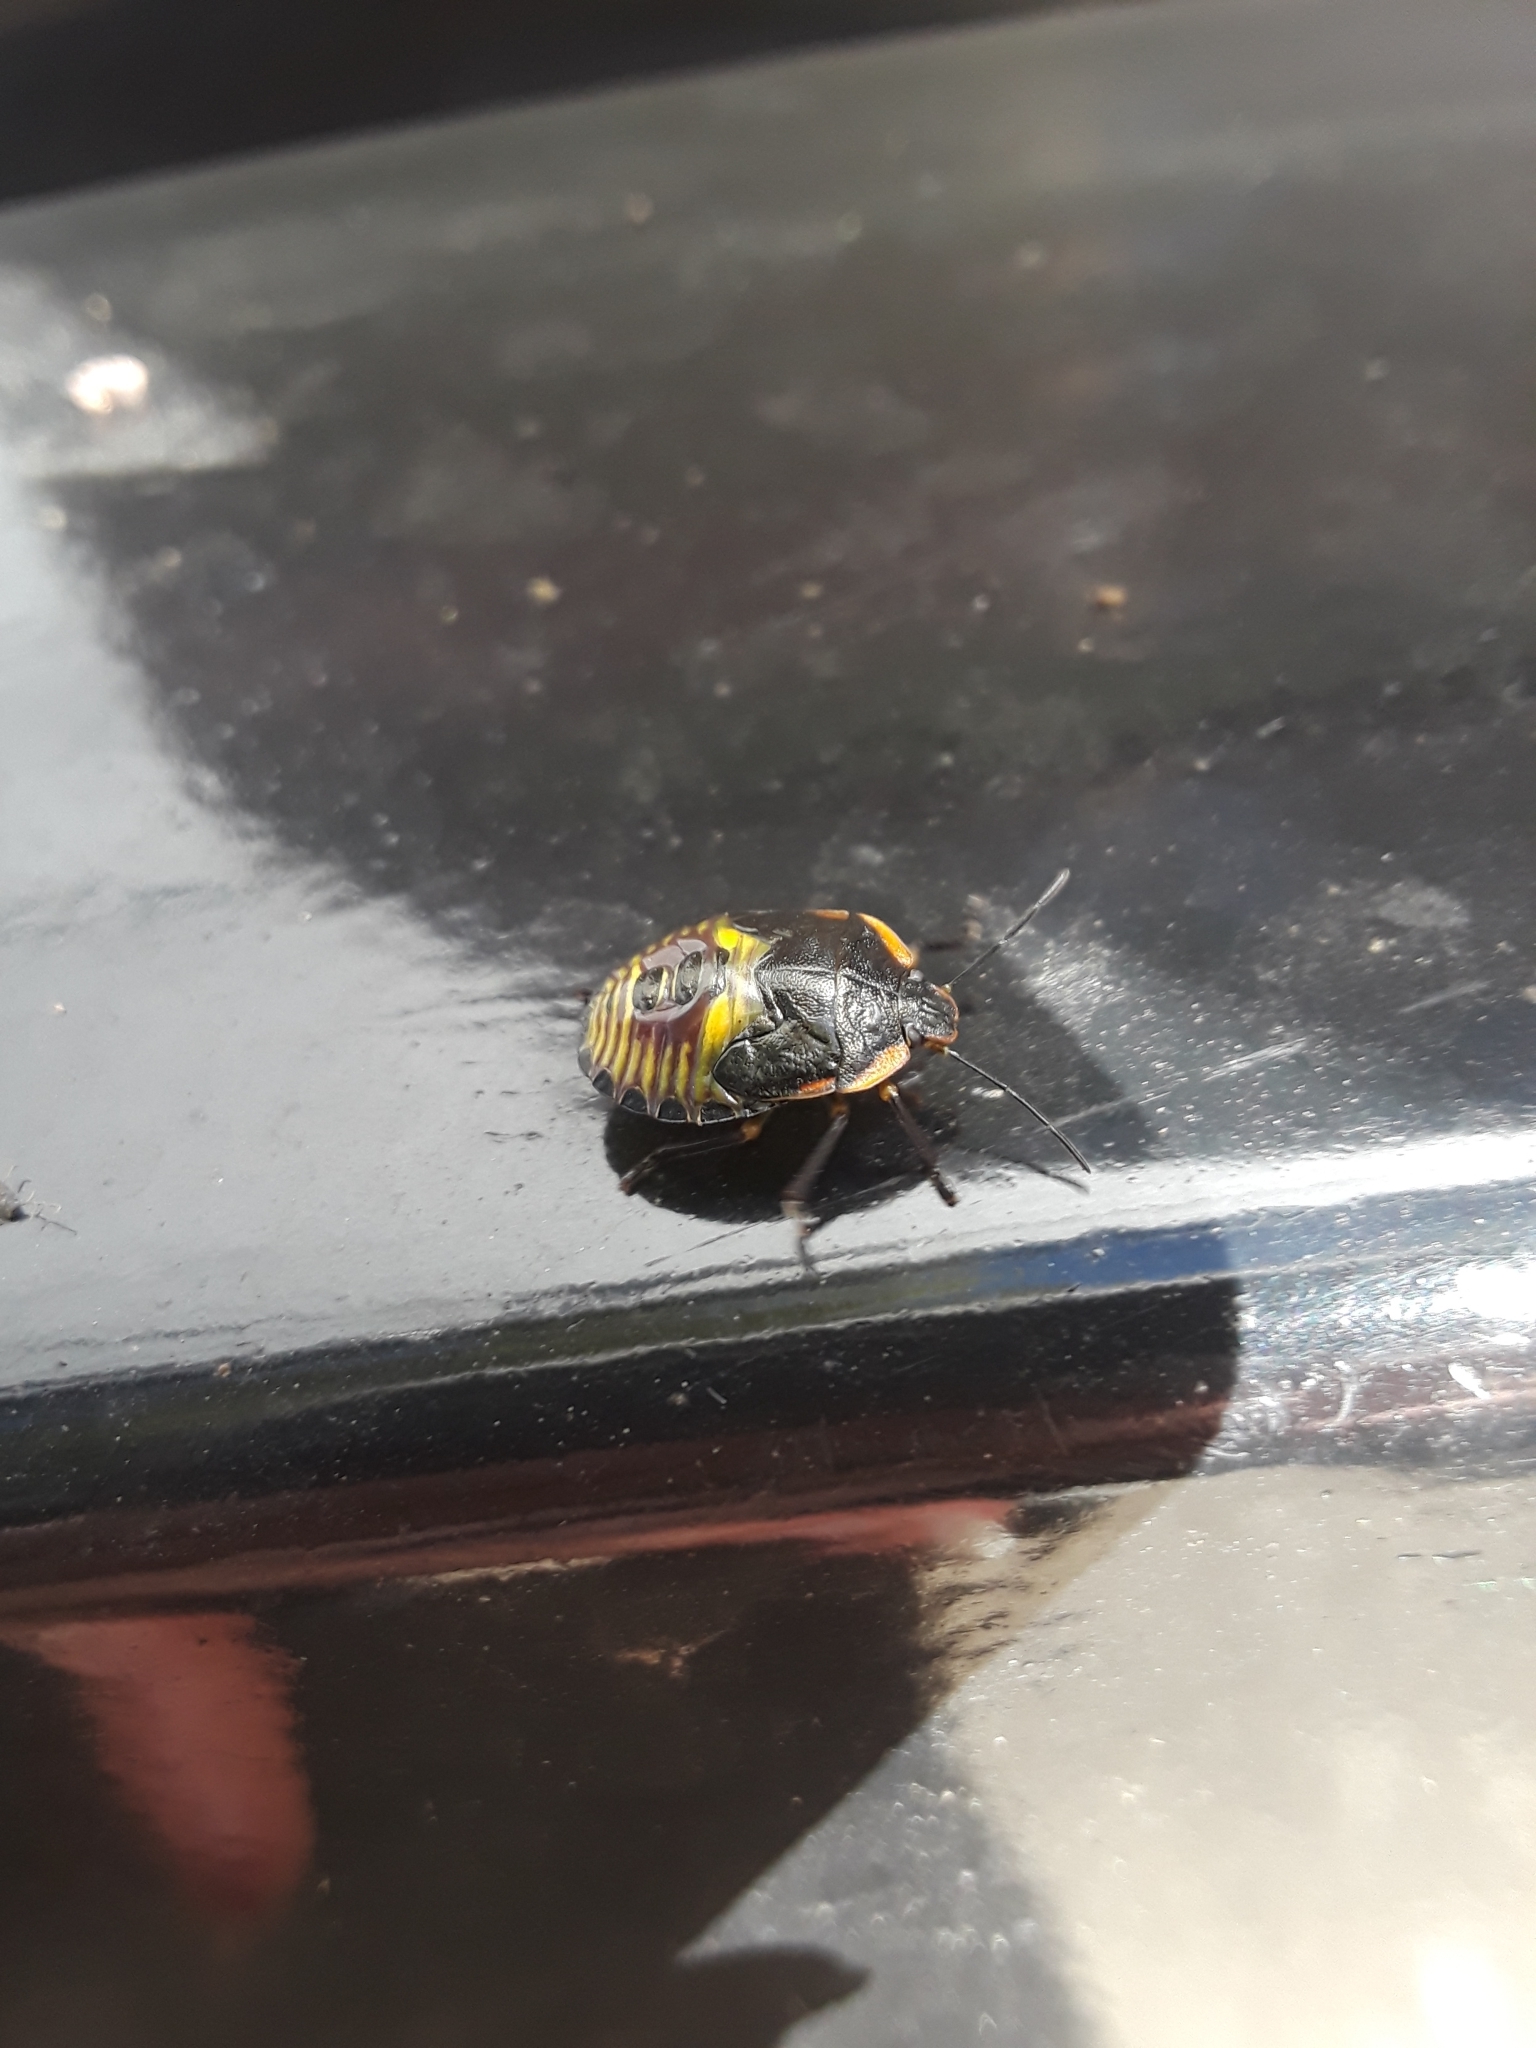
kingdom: Animalia
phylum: Arthropoda
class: Insecta
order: Hemiptera
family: Pentatomidae
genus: Chinavia
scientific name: Chinavia hilaris
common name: Green stink bug
